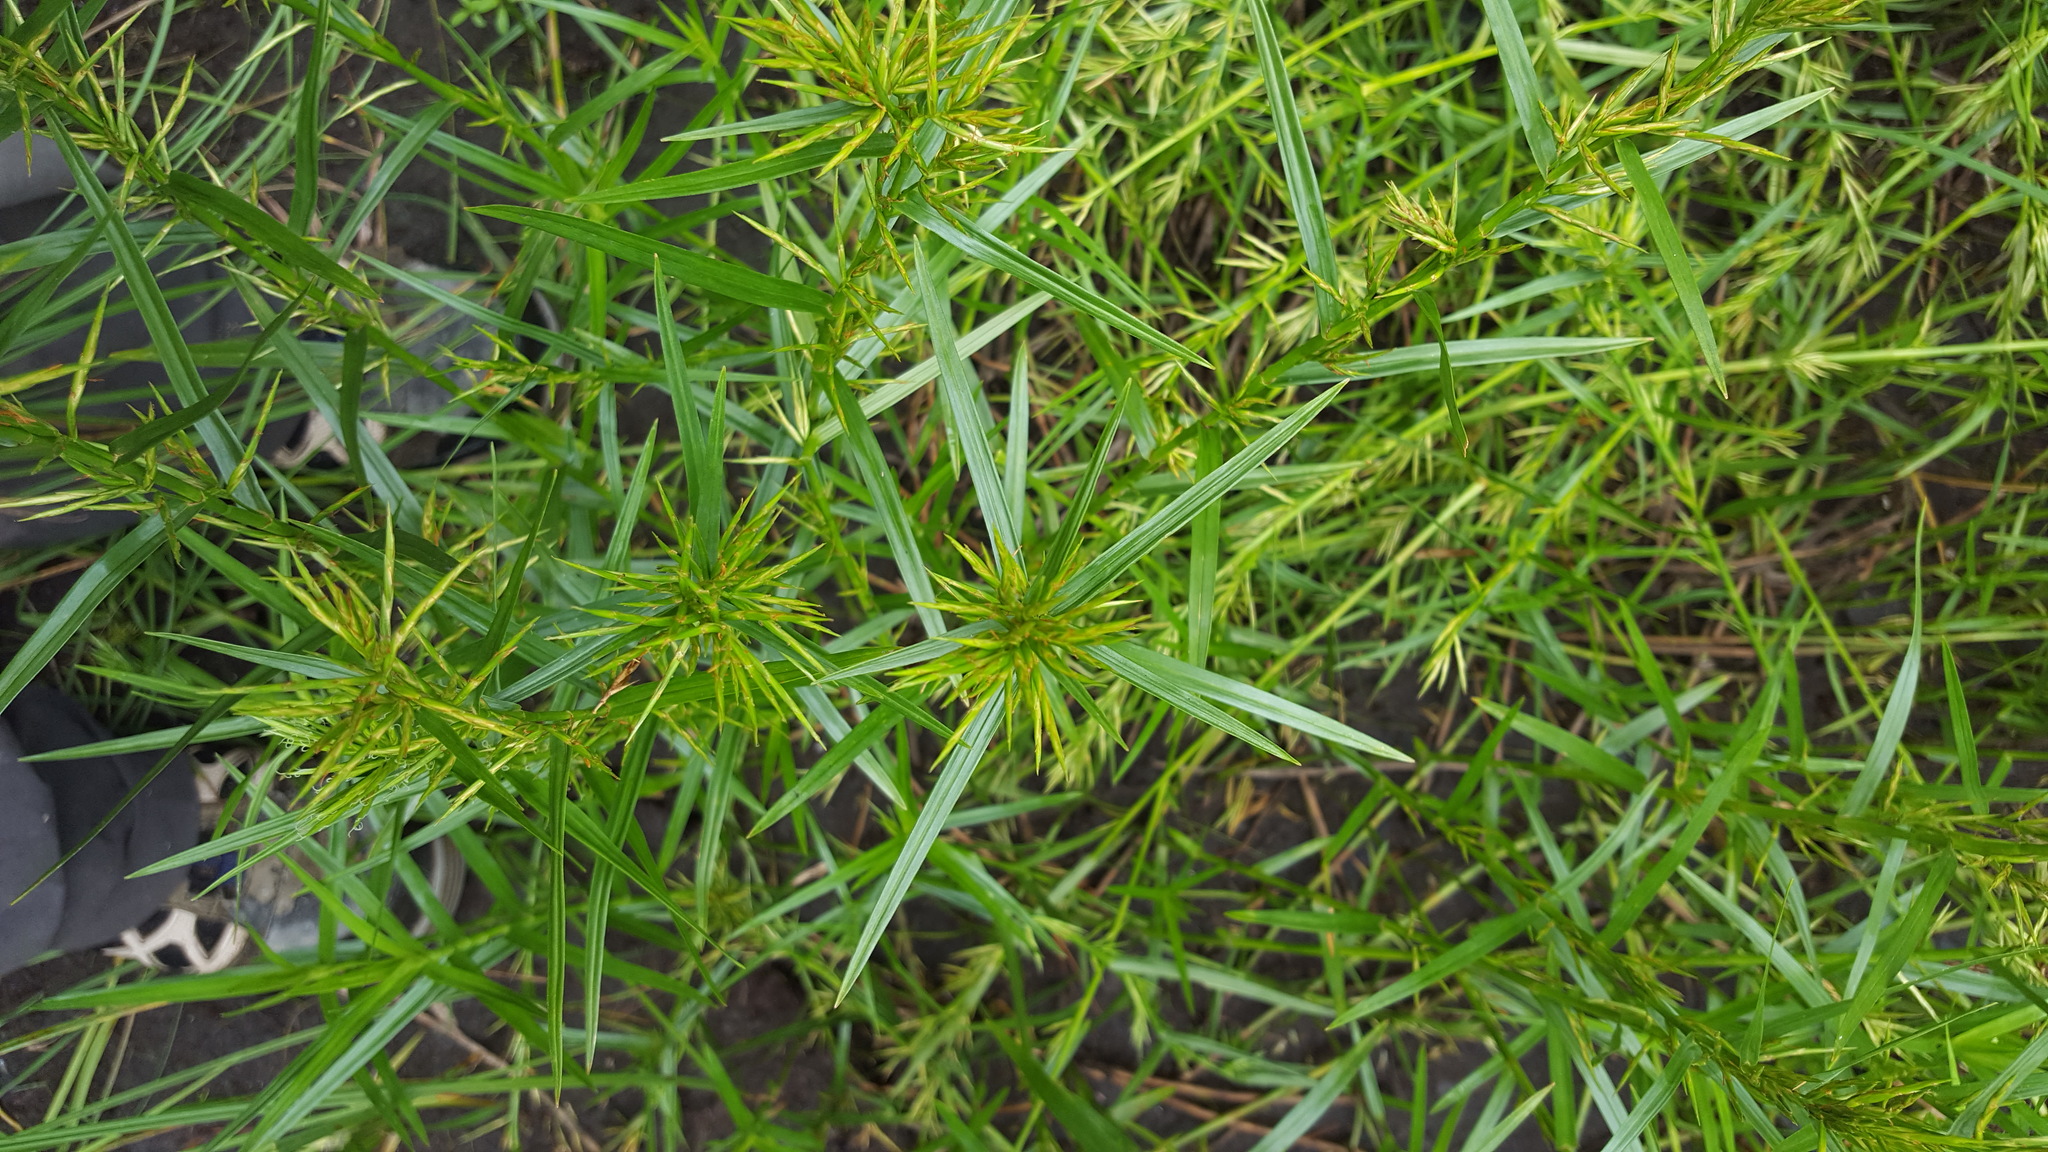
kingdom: Plantae
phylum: Tracheophyta
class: Liliopsida
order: Poales
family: Cyperaceae
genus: Dulichium
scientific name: Dulichium arundinaceum
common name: Three-way sedge
